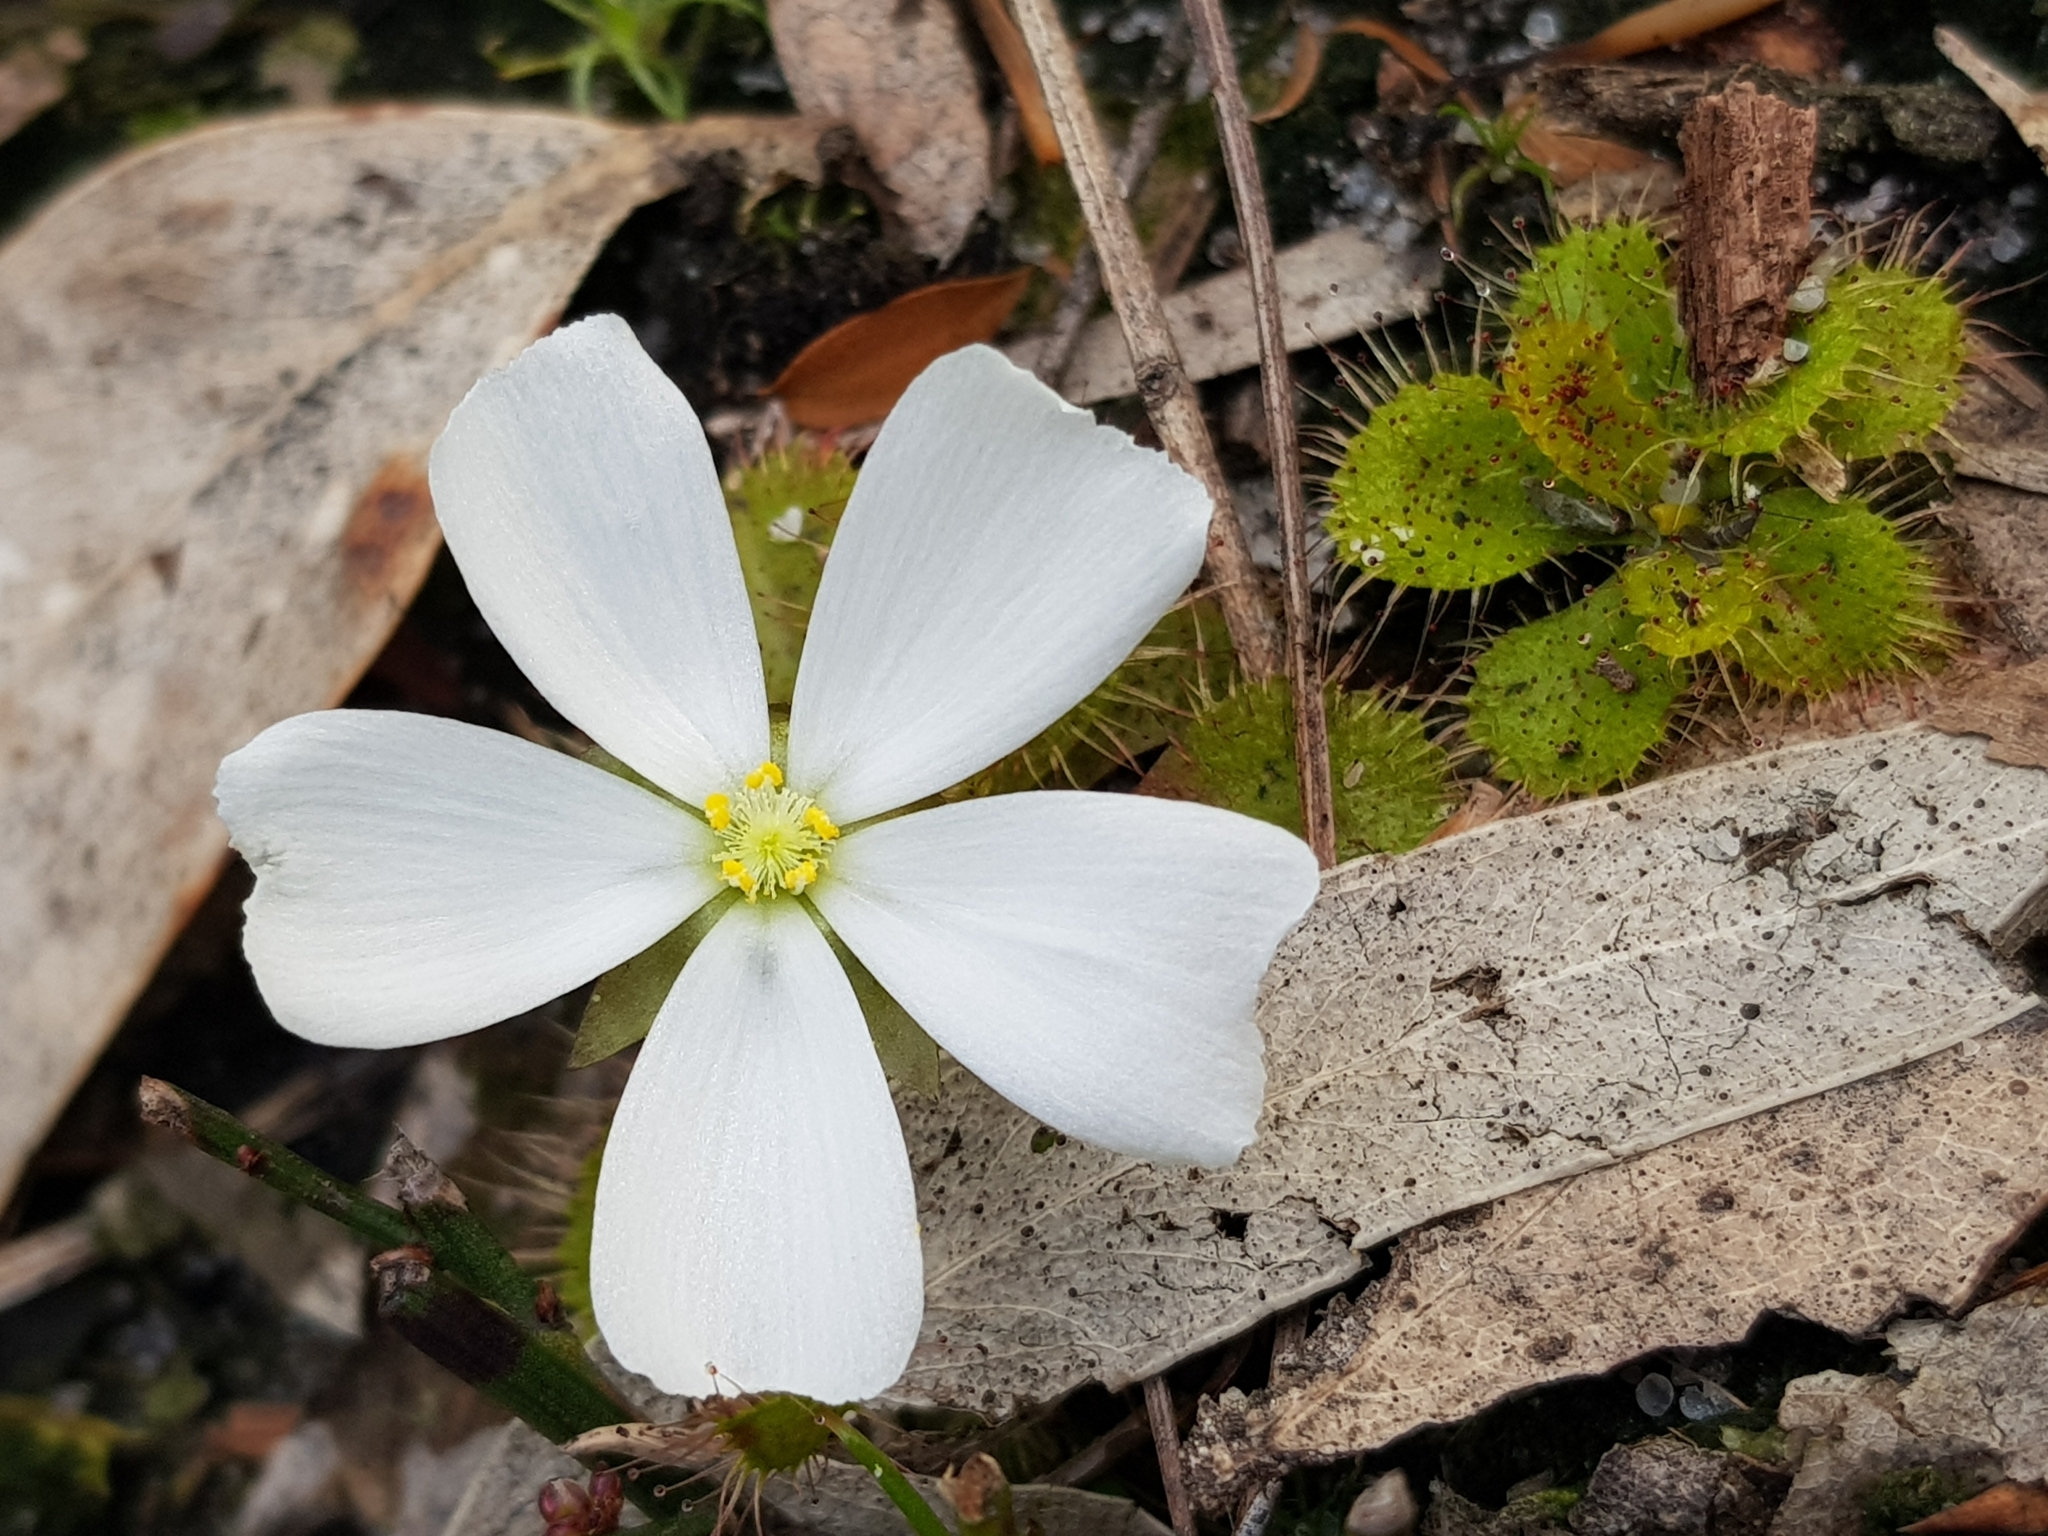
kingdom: Plantae
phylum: Tracheophyta
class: Magnoliopsida
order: Caryophyllales
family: Droseraceae
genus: Drosera
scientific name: Drosera aberrans
